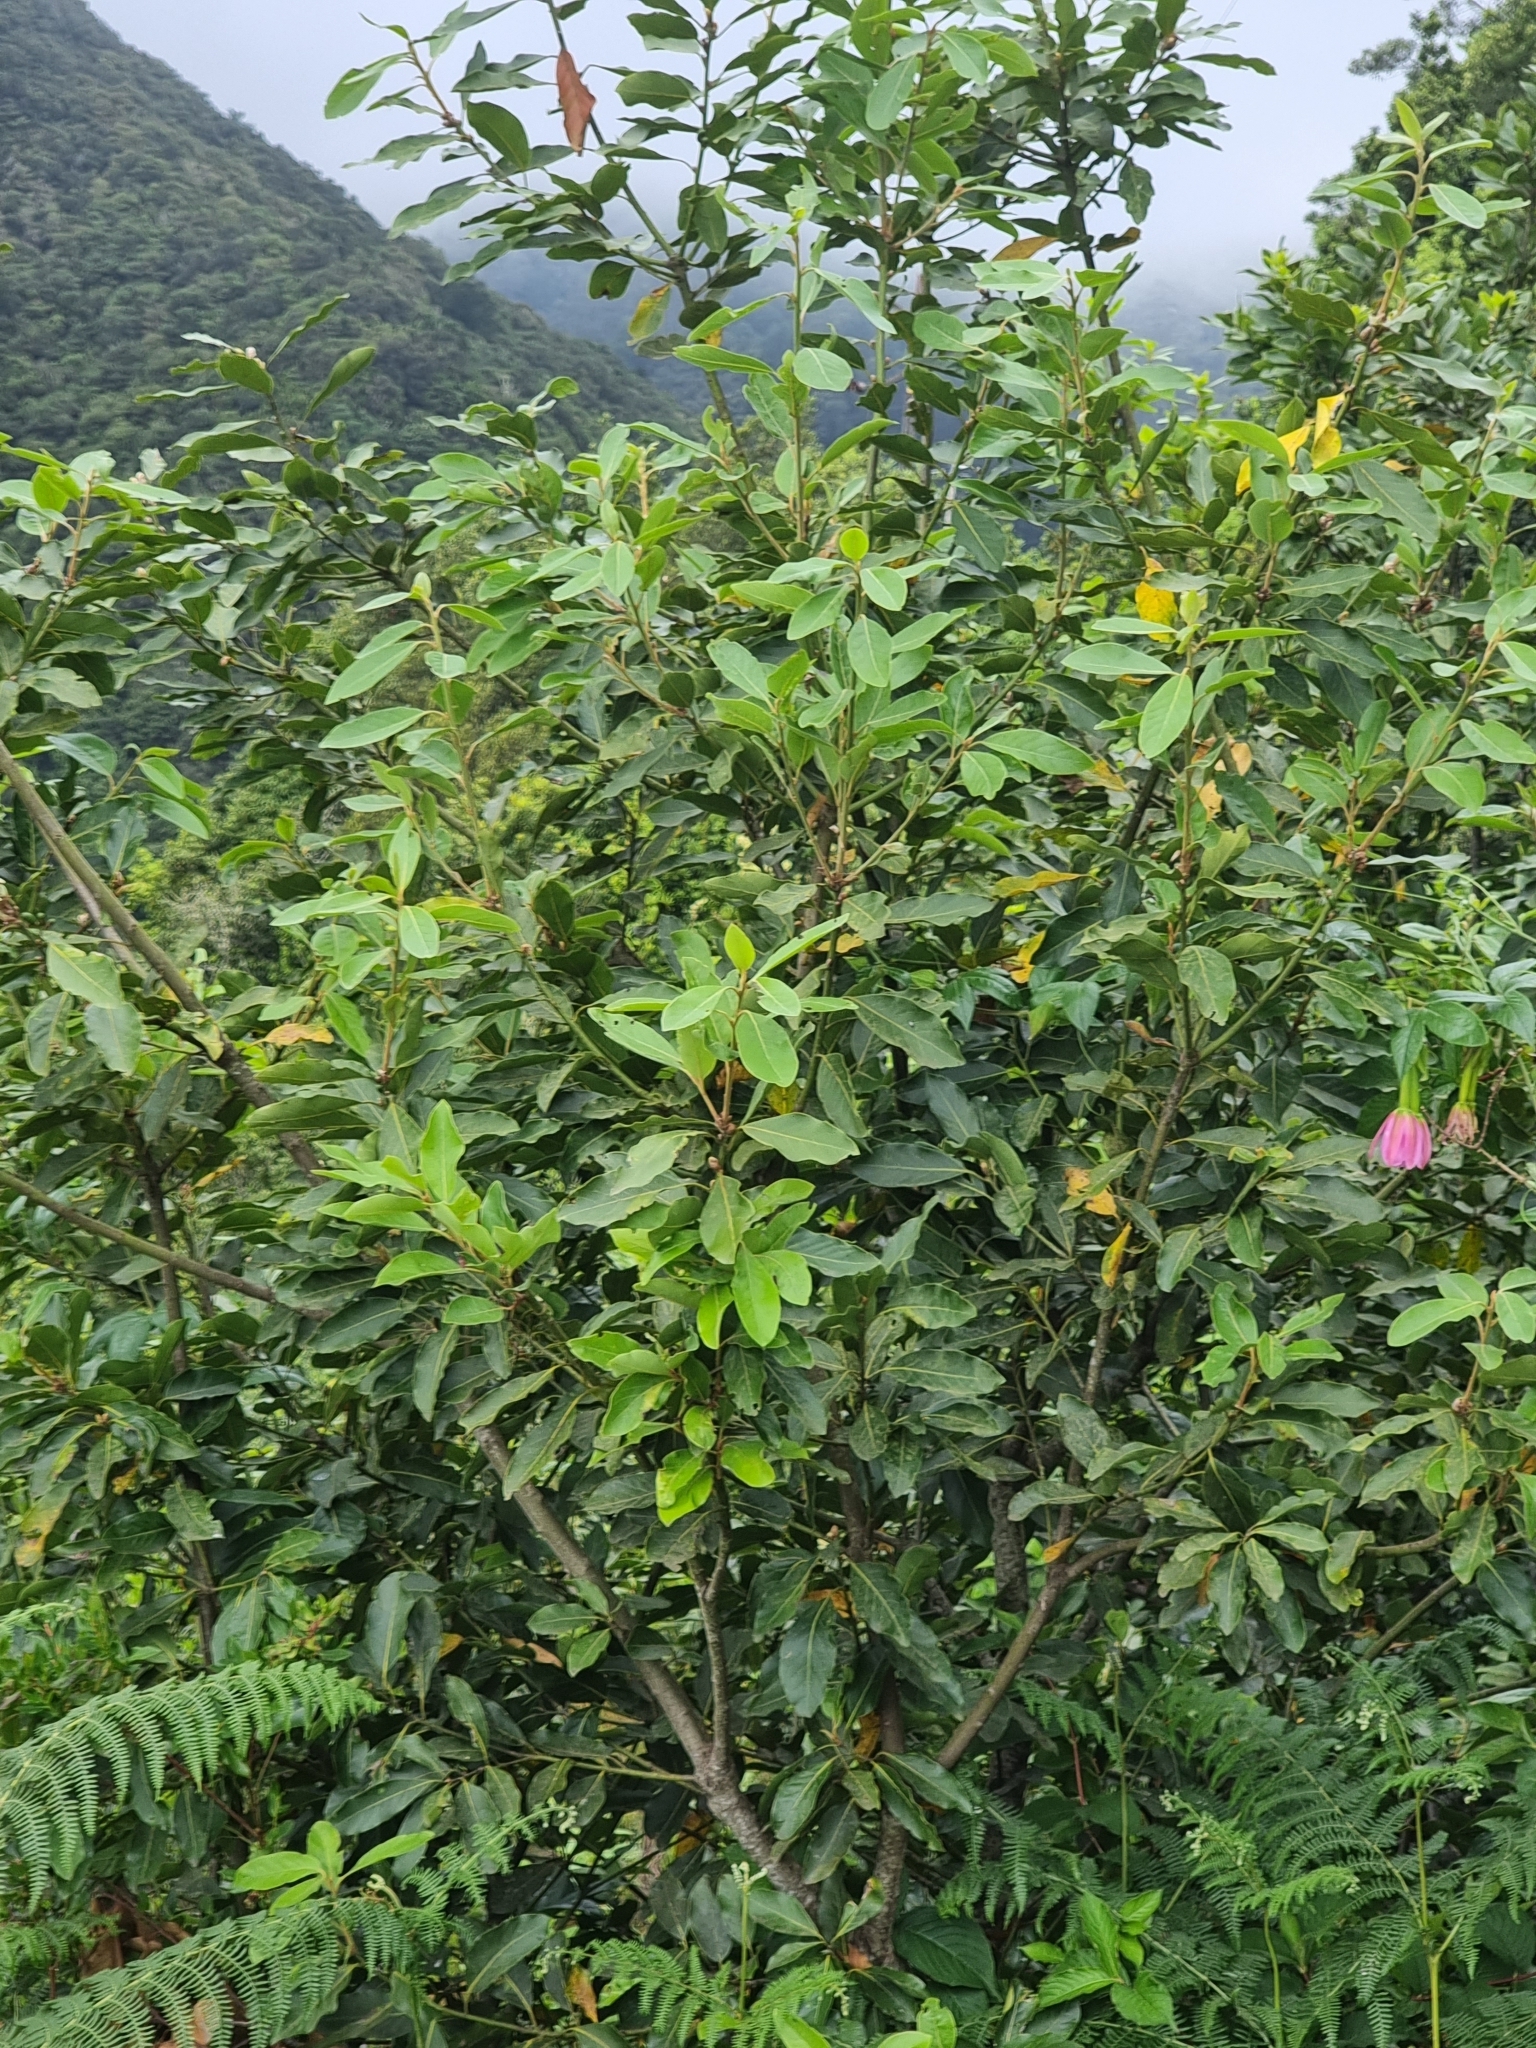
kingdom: Plantae
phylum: Tracheophyta
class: Magnoliopsida
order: Laurales
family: Lauraceae
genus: Laurus
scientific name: Laurus novocanariensis
